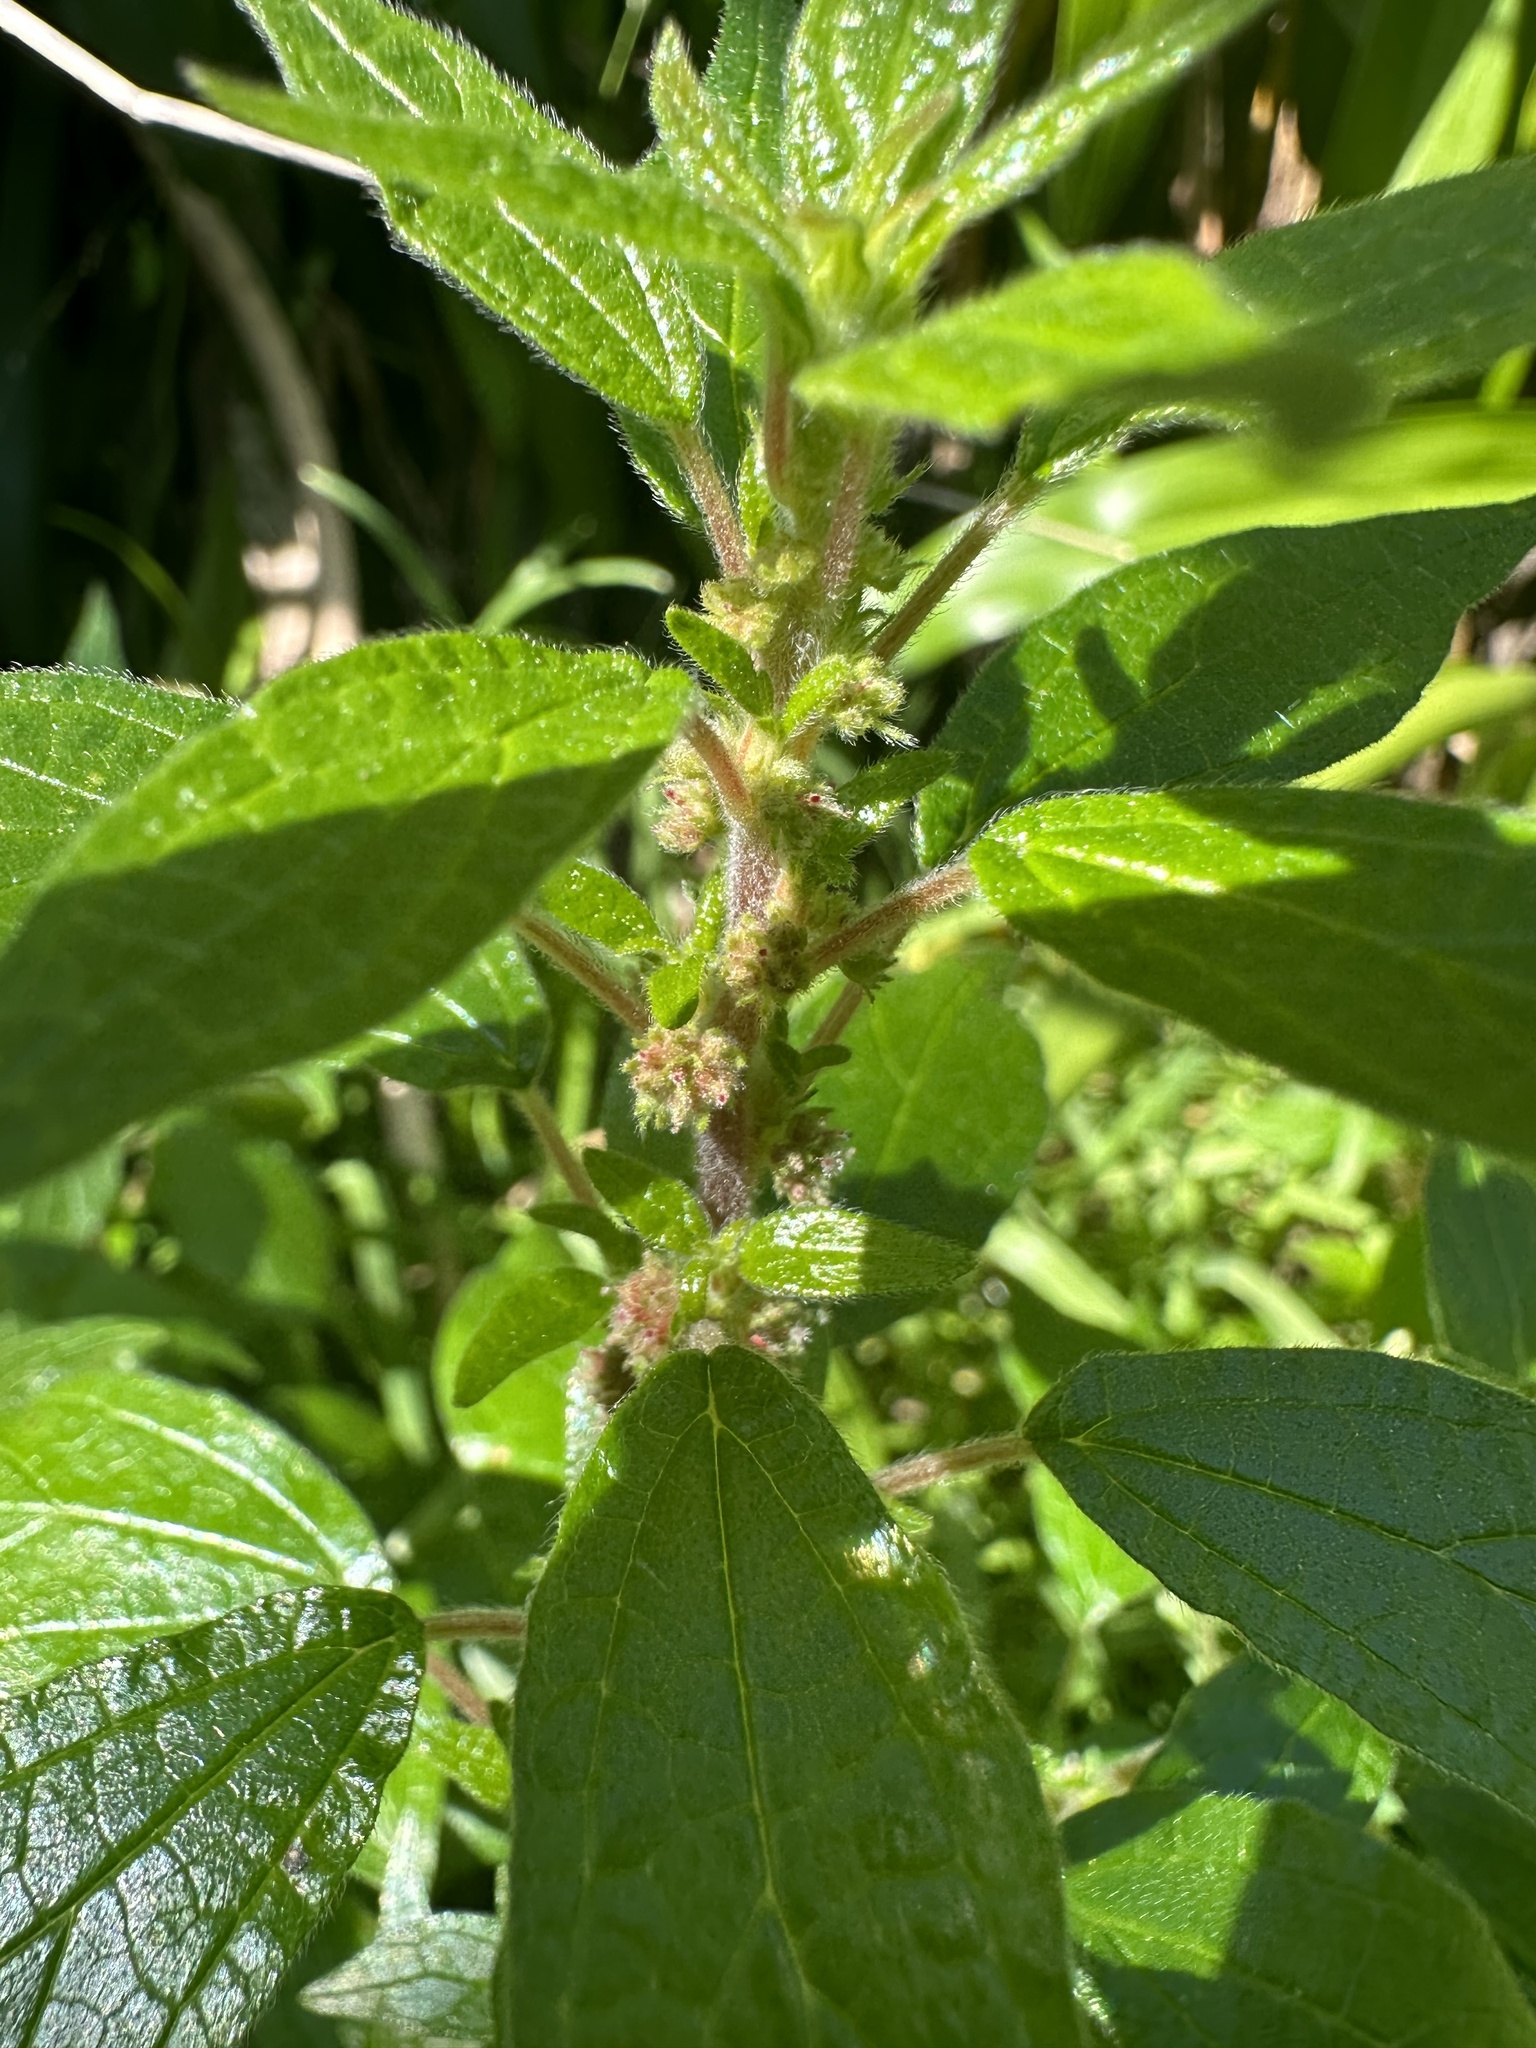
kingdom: Plantae
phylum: Tracheophyta
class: Magnoliopsida
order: Rosales
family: Urticaceae
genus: Parietaria
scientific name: Parietaria officinalis
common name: Eastern pellitory-of-the-wall
